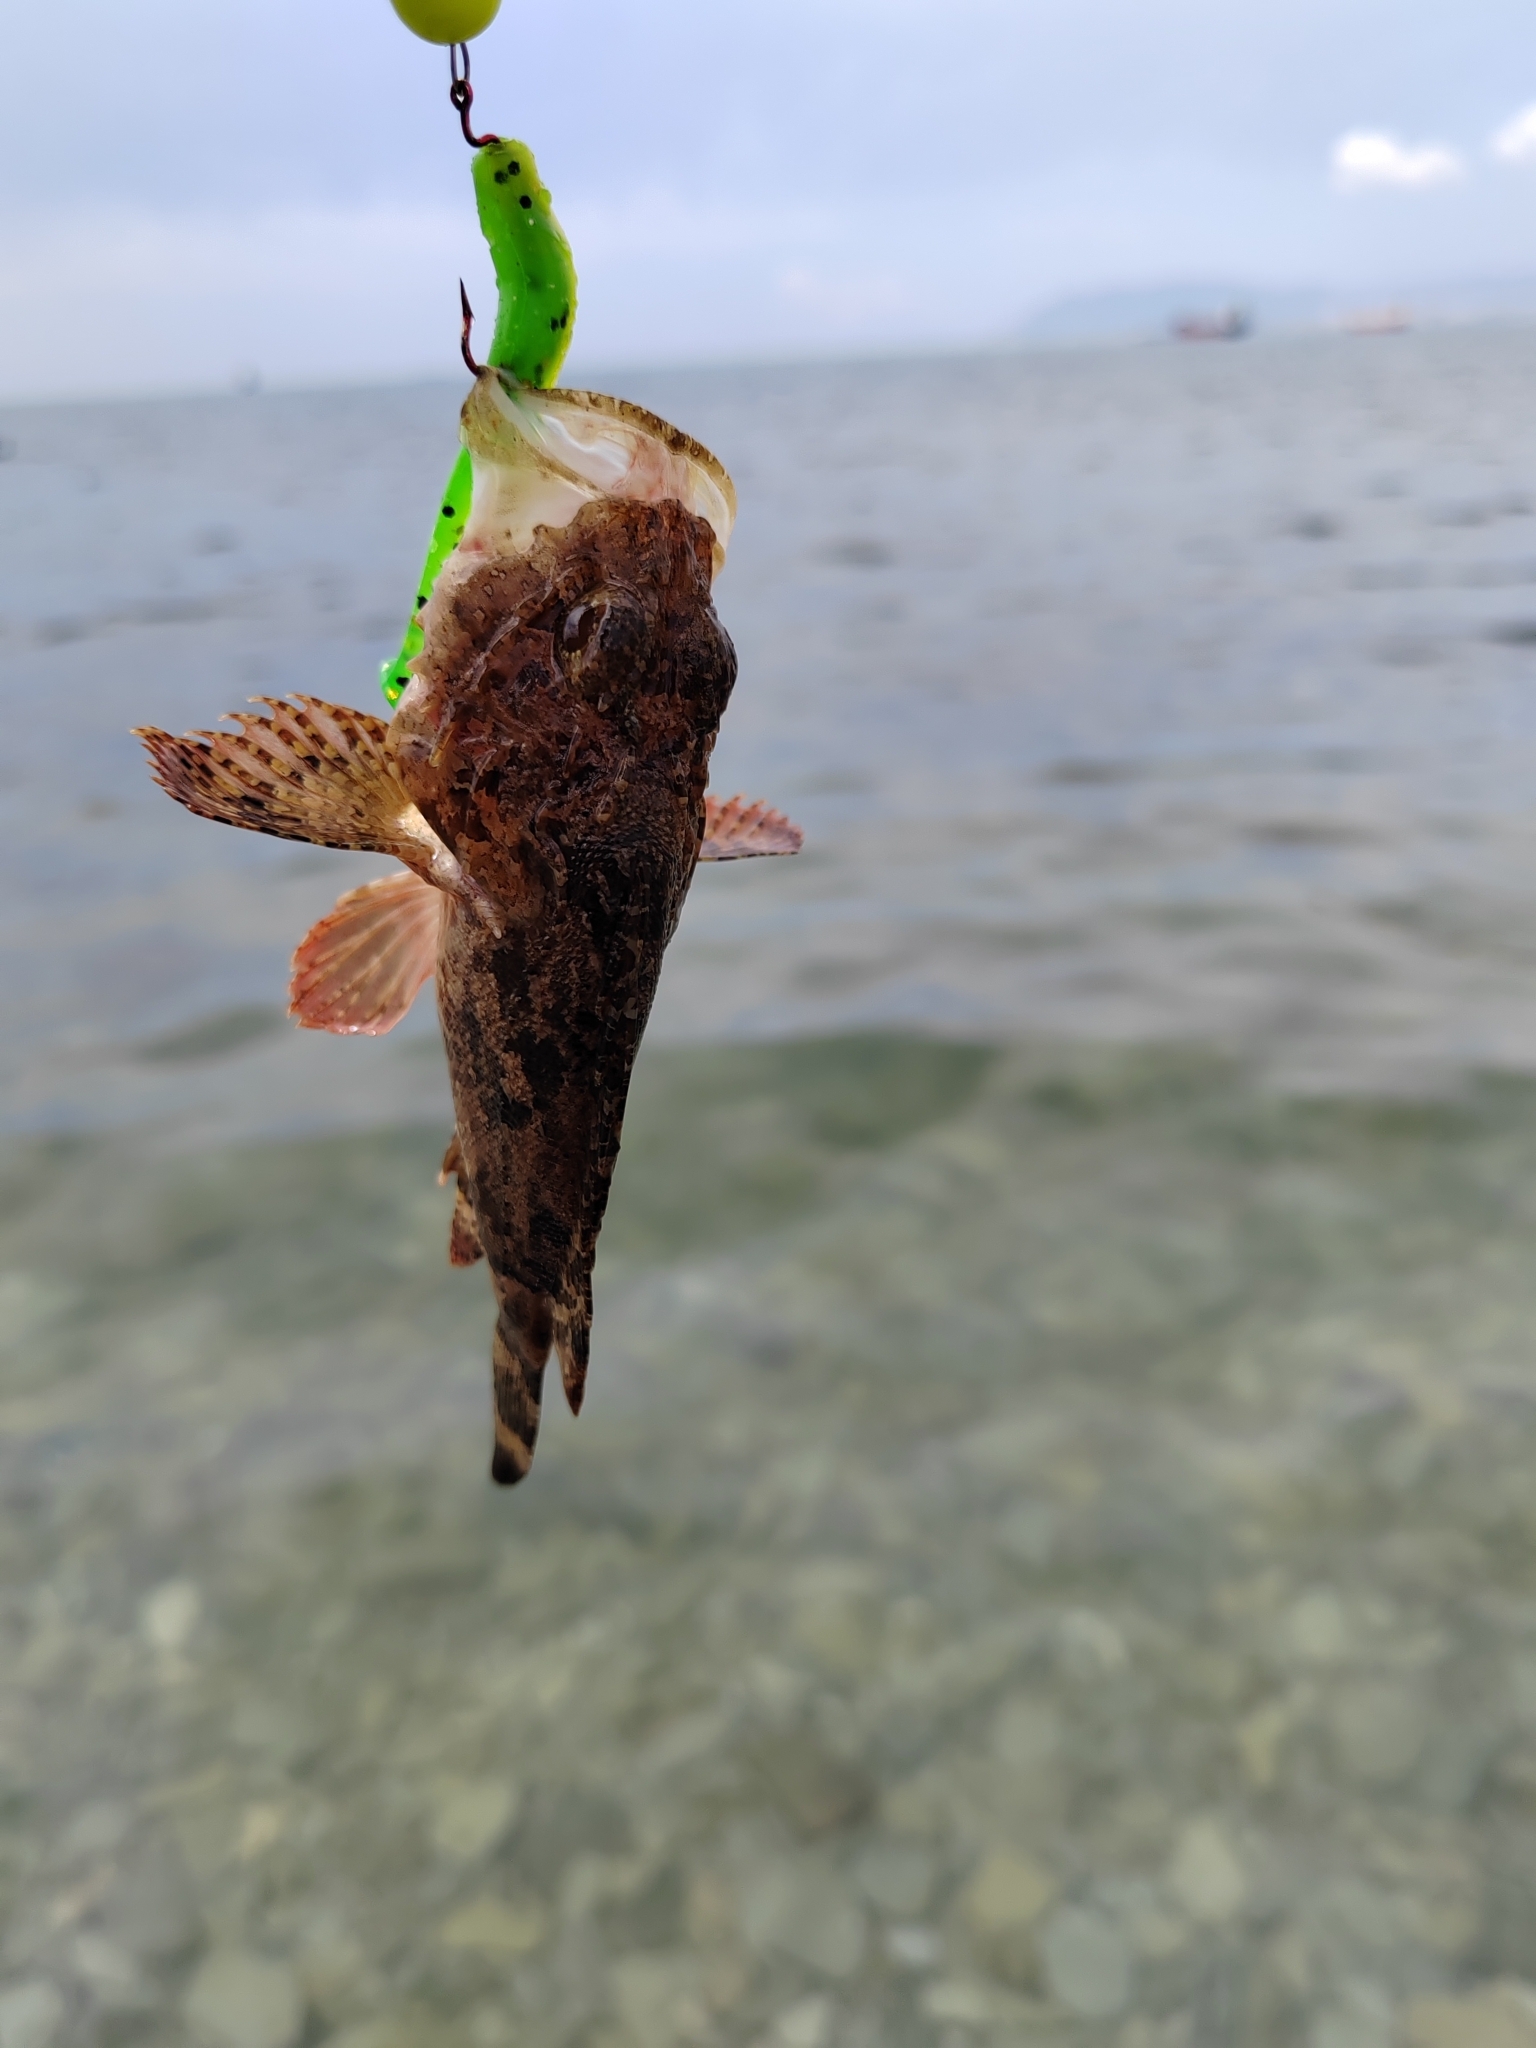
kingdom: Animalia
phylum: Chordata
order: Scorpaeniformes
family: Scorpaenidae
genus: Scorpaena
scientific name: Scorpaena porcus
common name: Black scorpionfish
